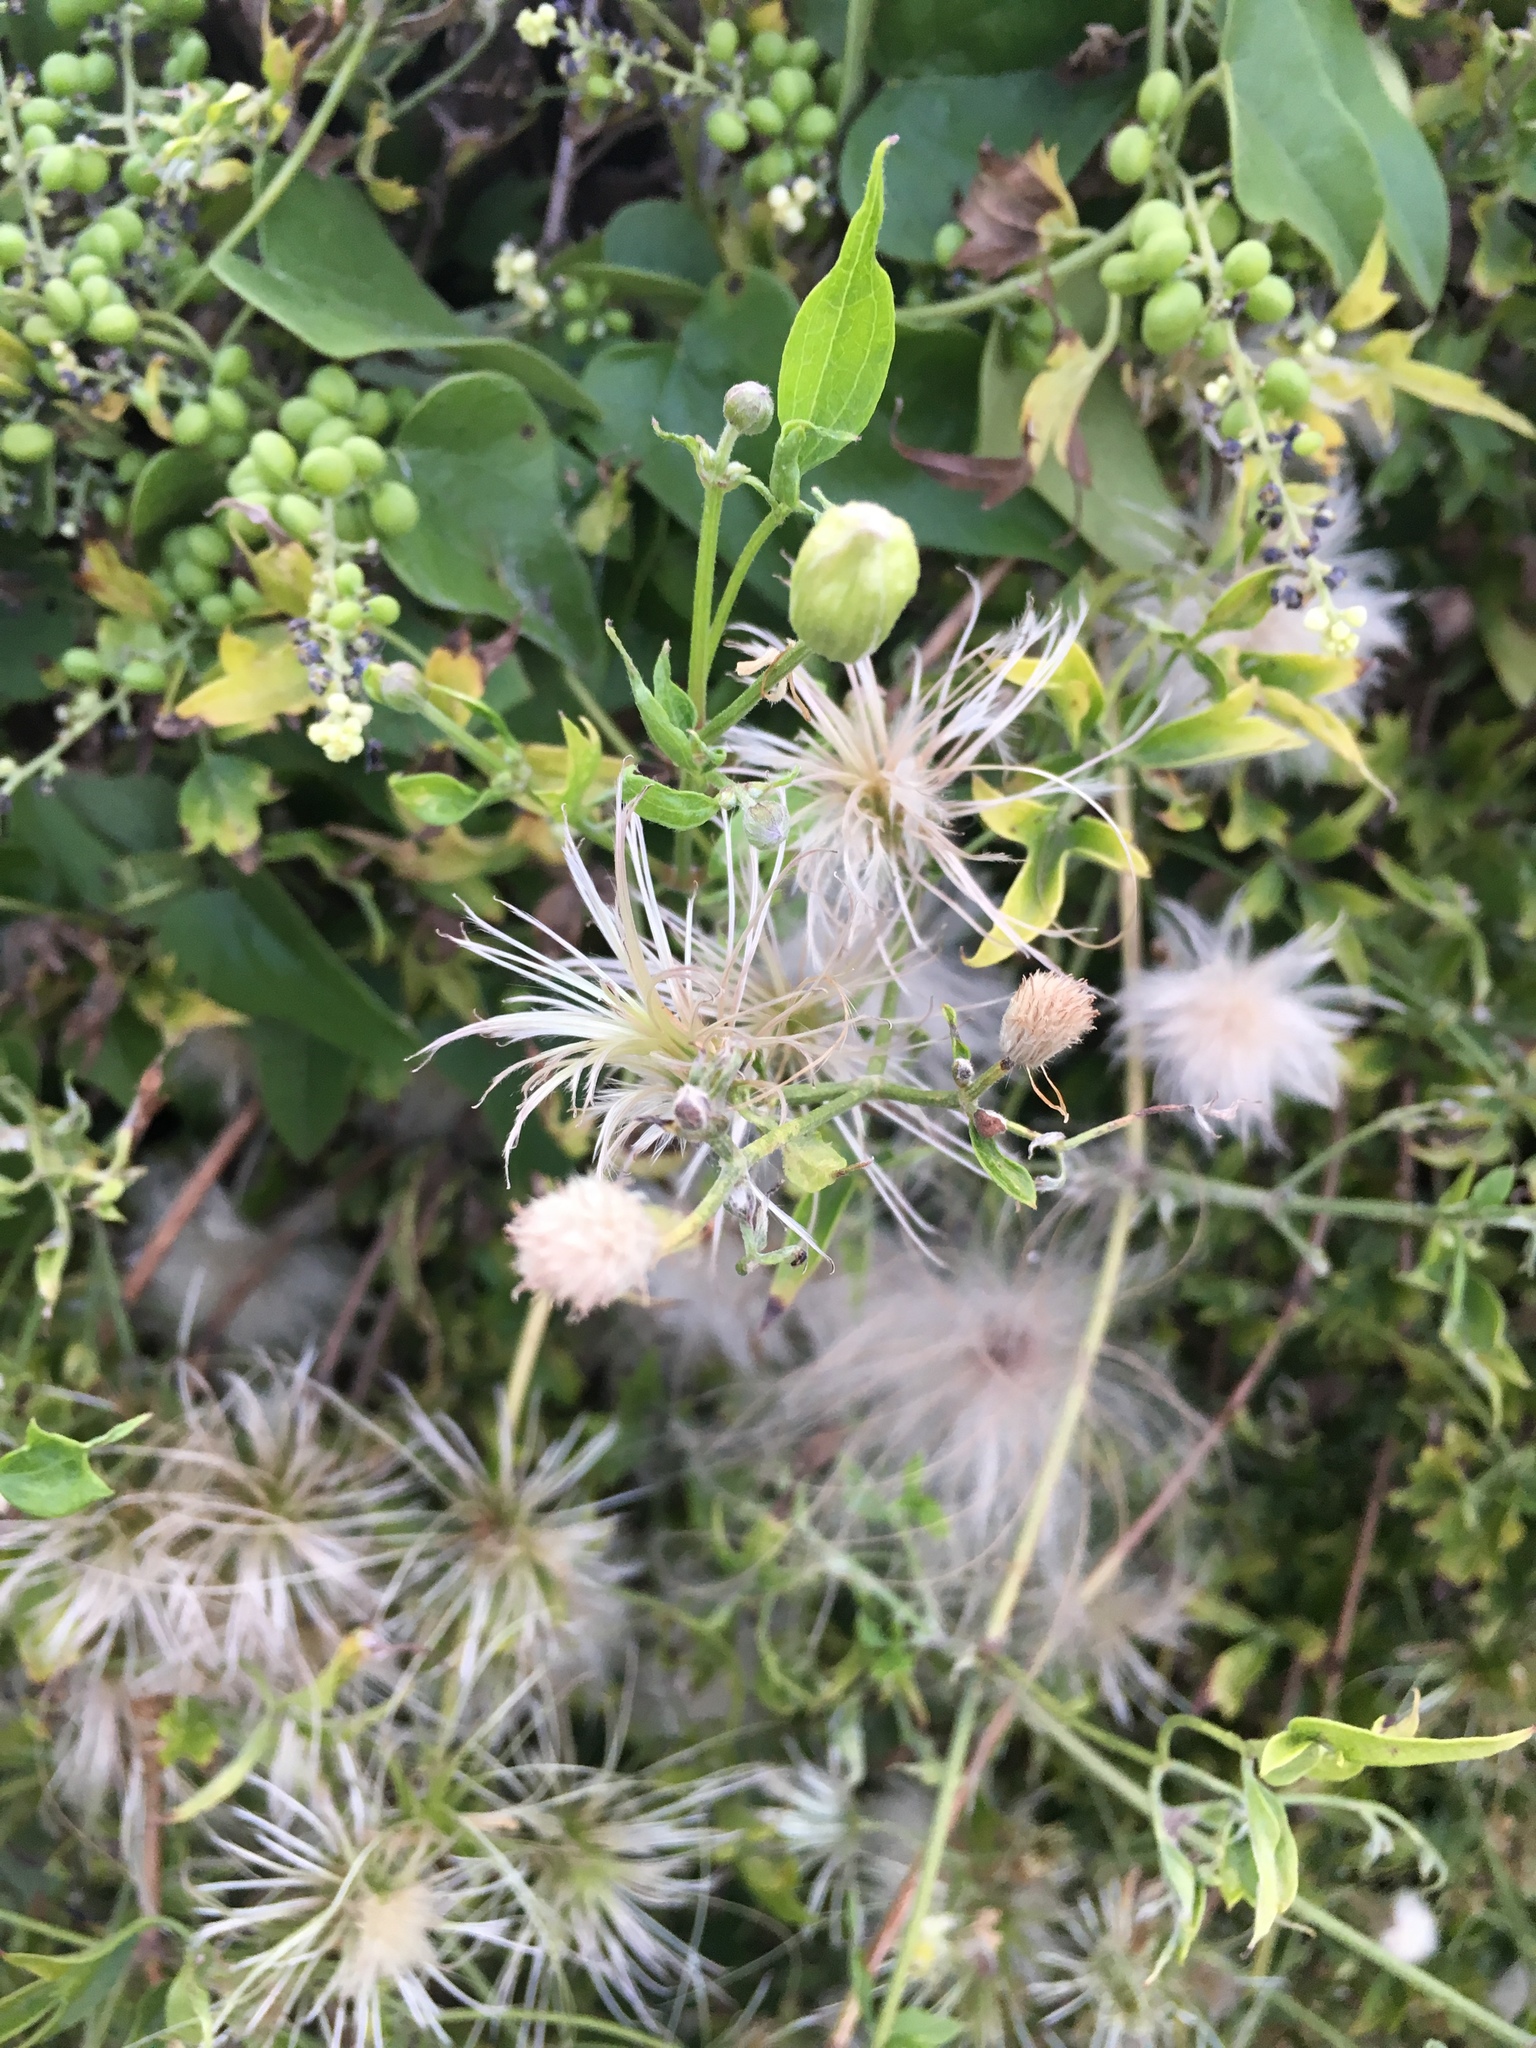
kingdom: Plantae
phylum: Tracheophyta
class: Magnoliopsida
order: Ranunculales
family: Ranunculaceae
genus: Clematis
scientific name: Clematis drummondii
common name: Texas virgin's bower
